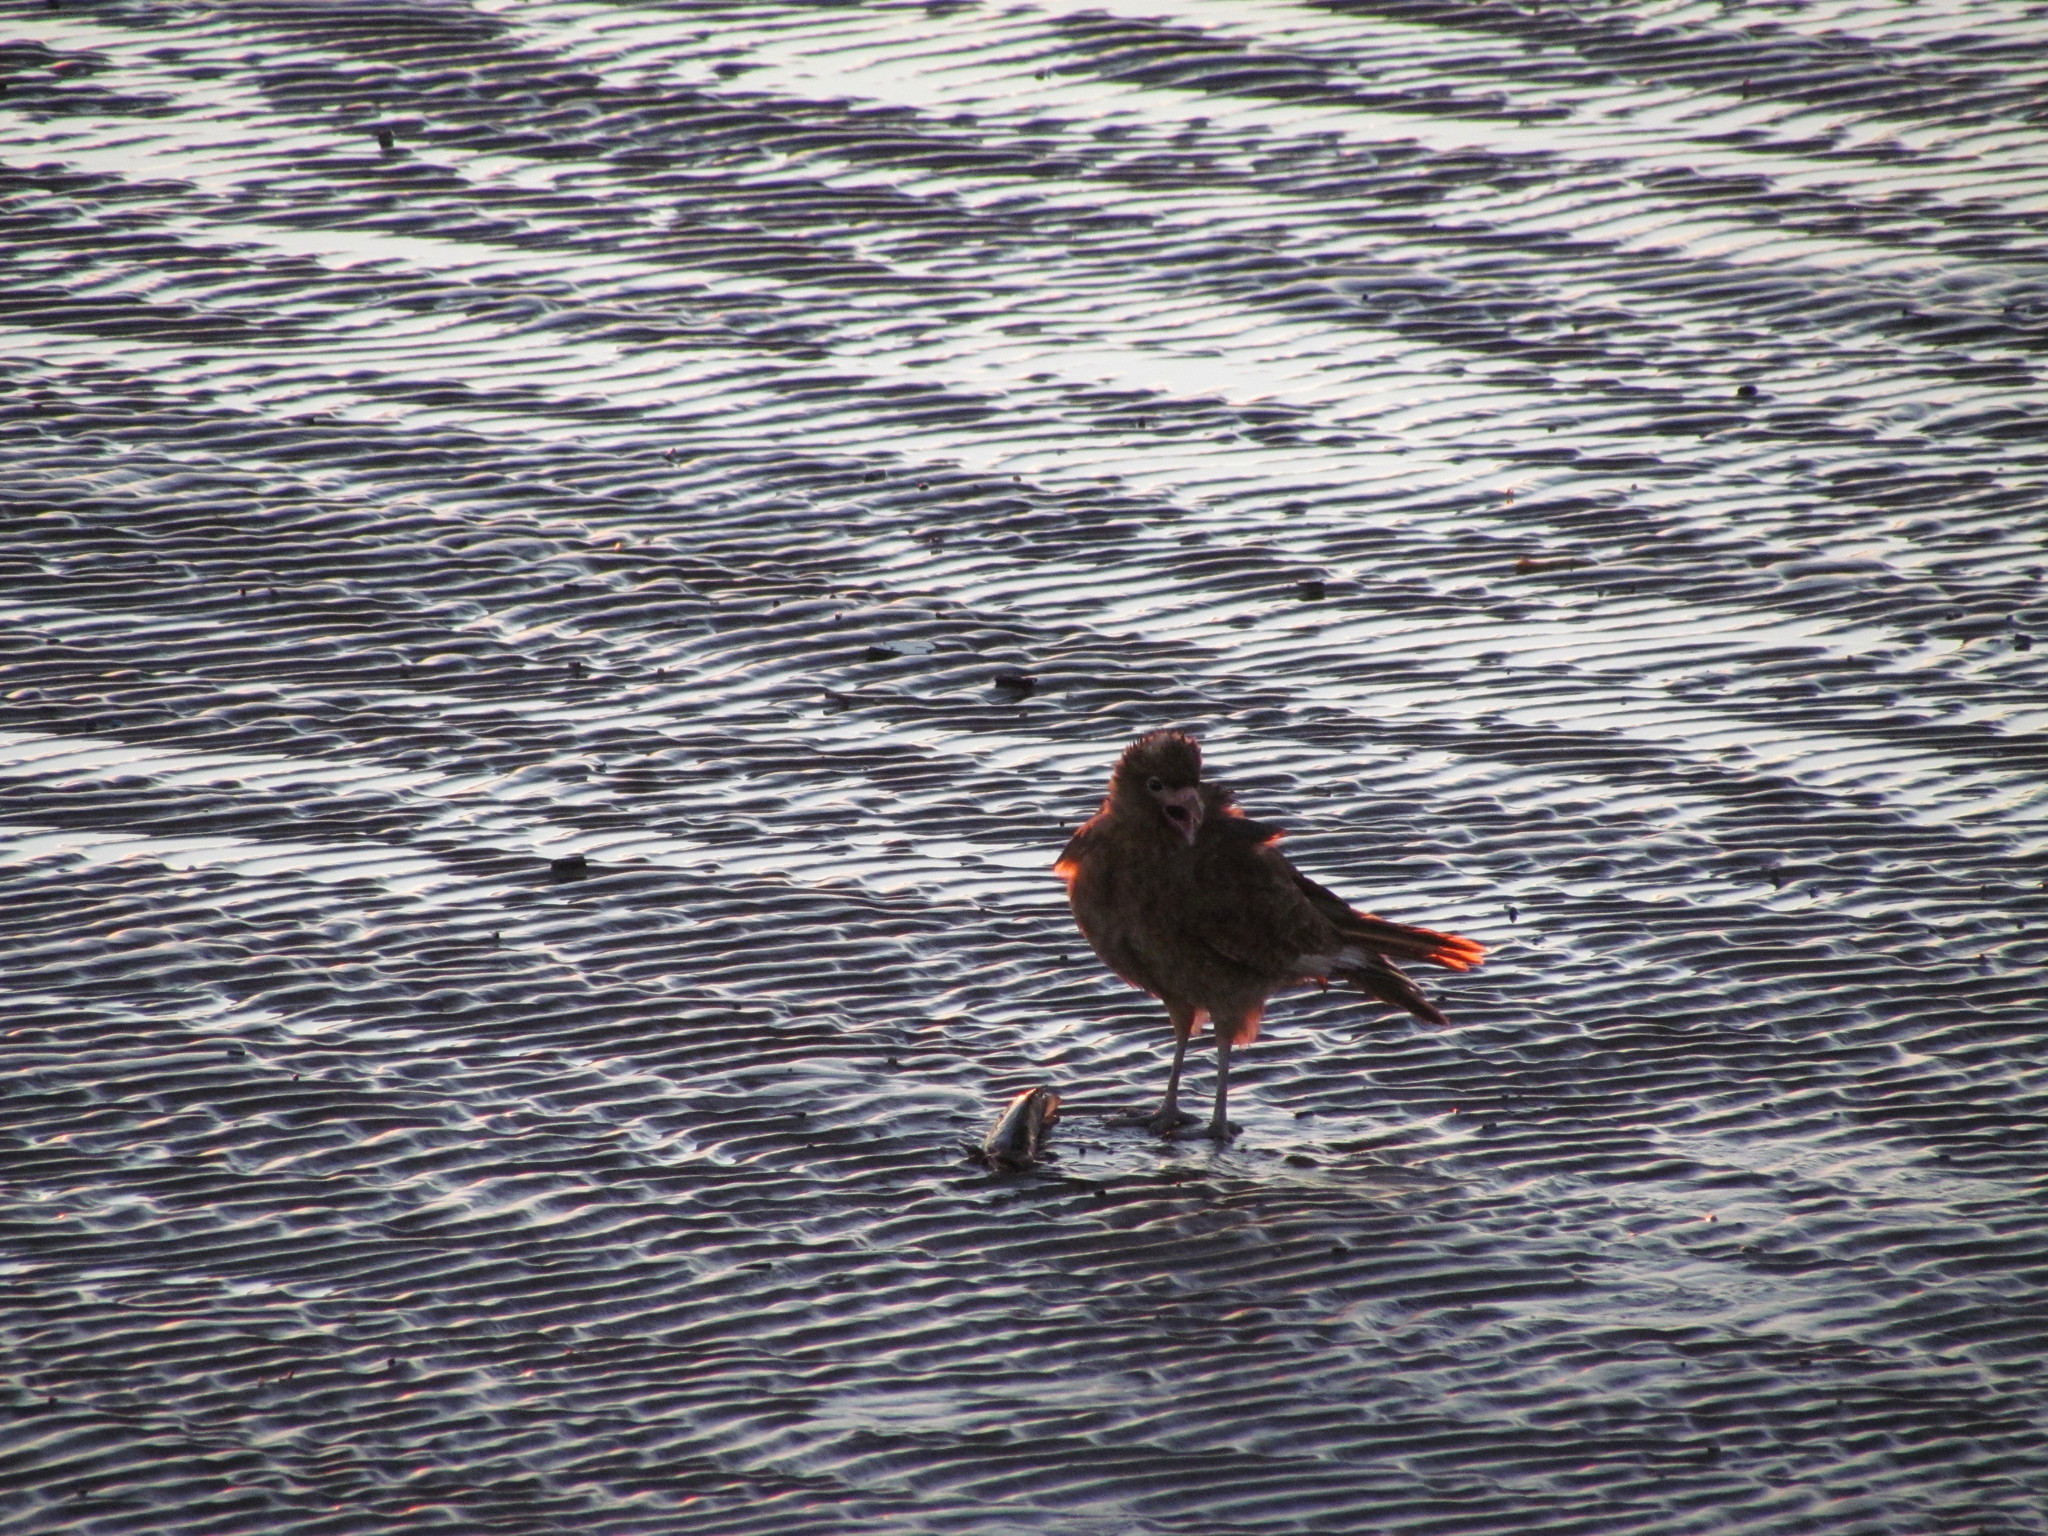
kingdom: Animalia
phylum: Chordata
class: Aves
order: Falconiformes
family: Falconidae
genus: Daptrius
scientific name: Daptrius
